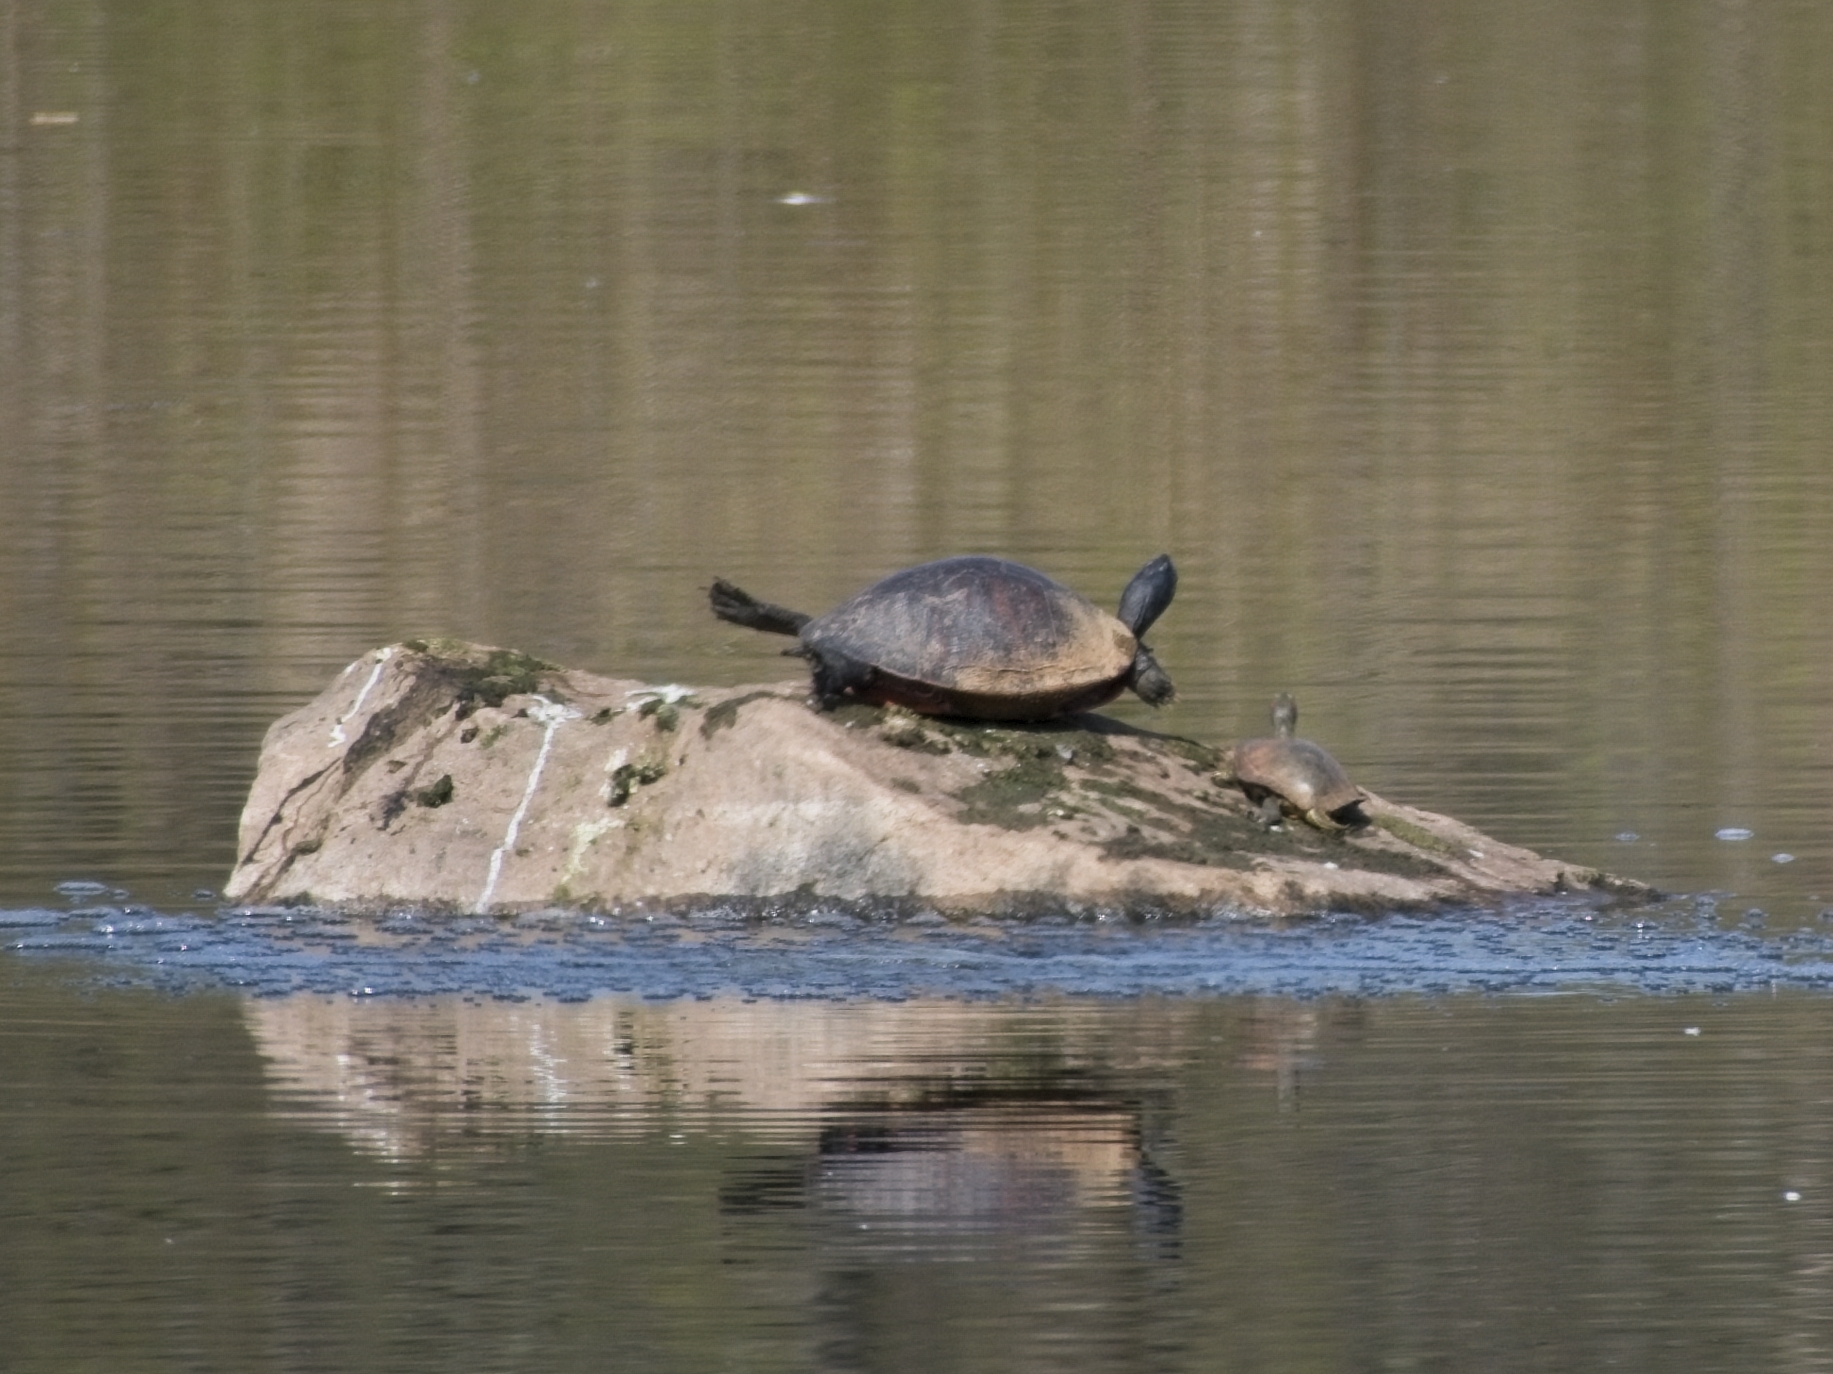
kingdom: Animalia
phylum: Chordata
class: Testudines
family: Emydidae
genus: Pseudemys
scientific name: Pseudemys rubriventris
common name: American red-bellied turtle
